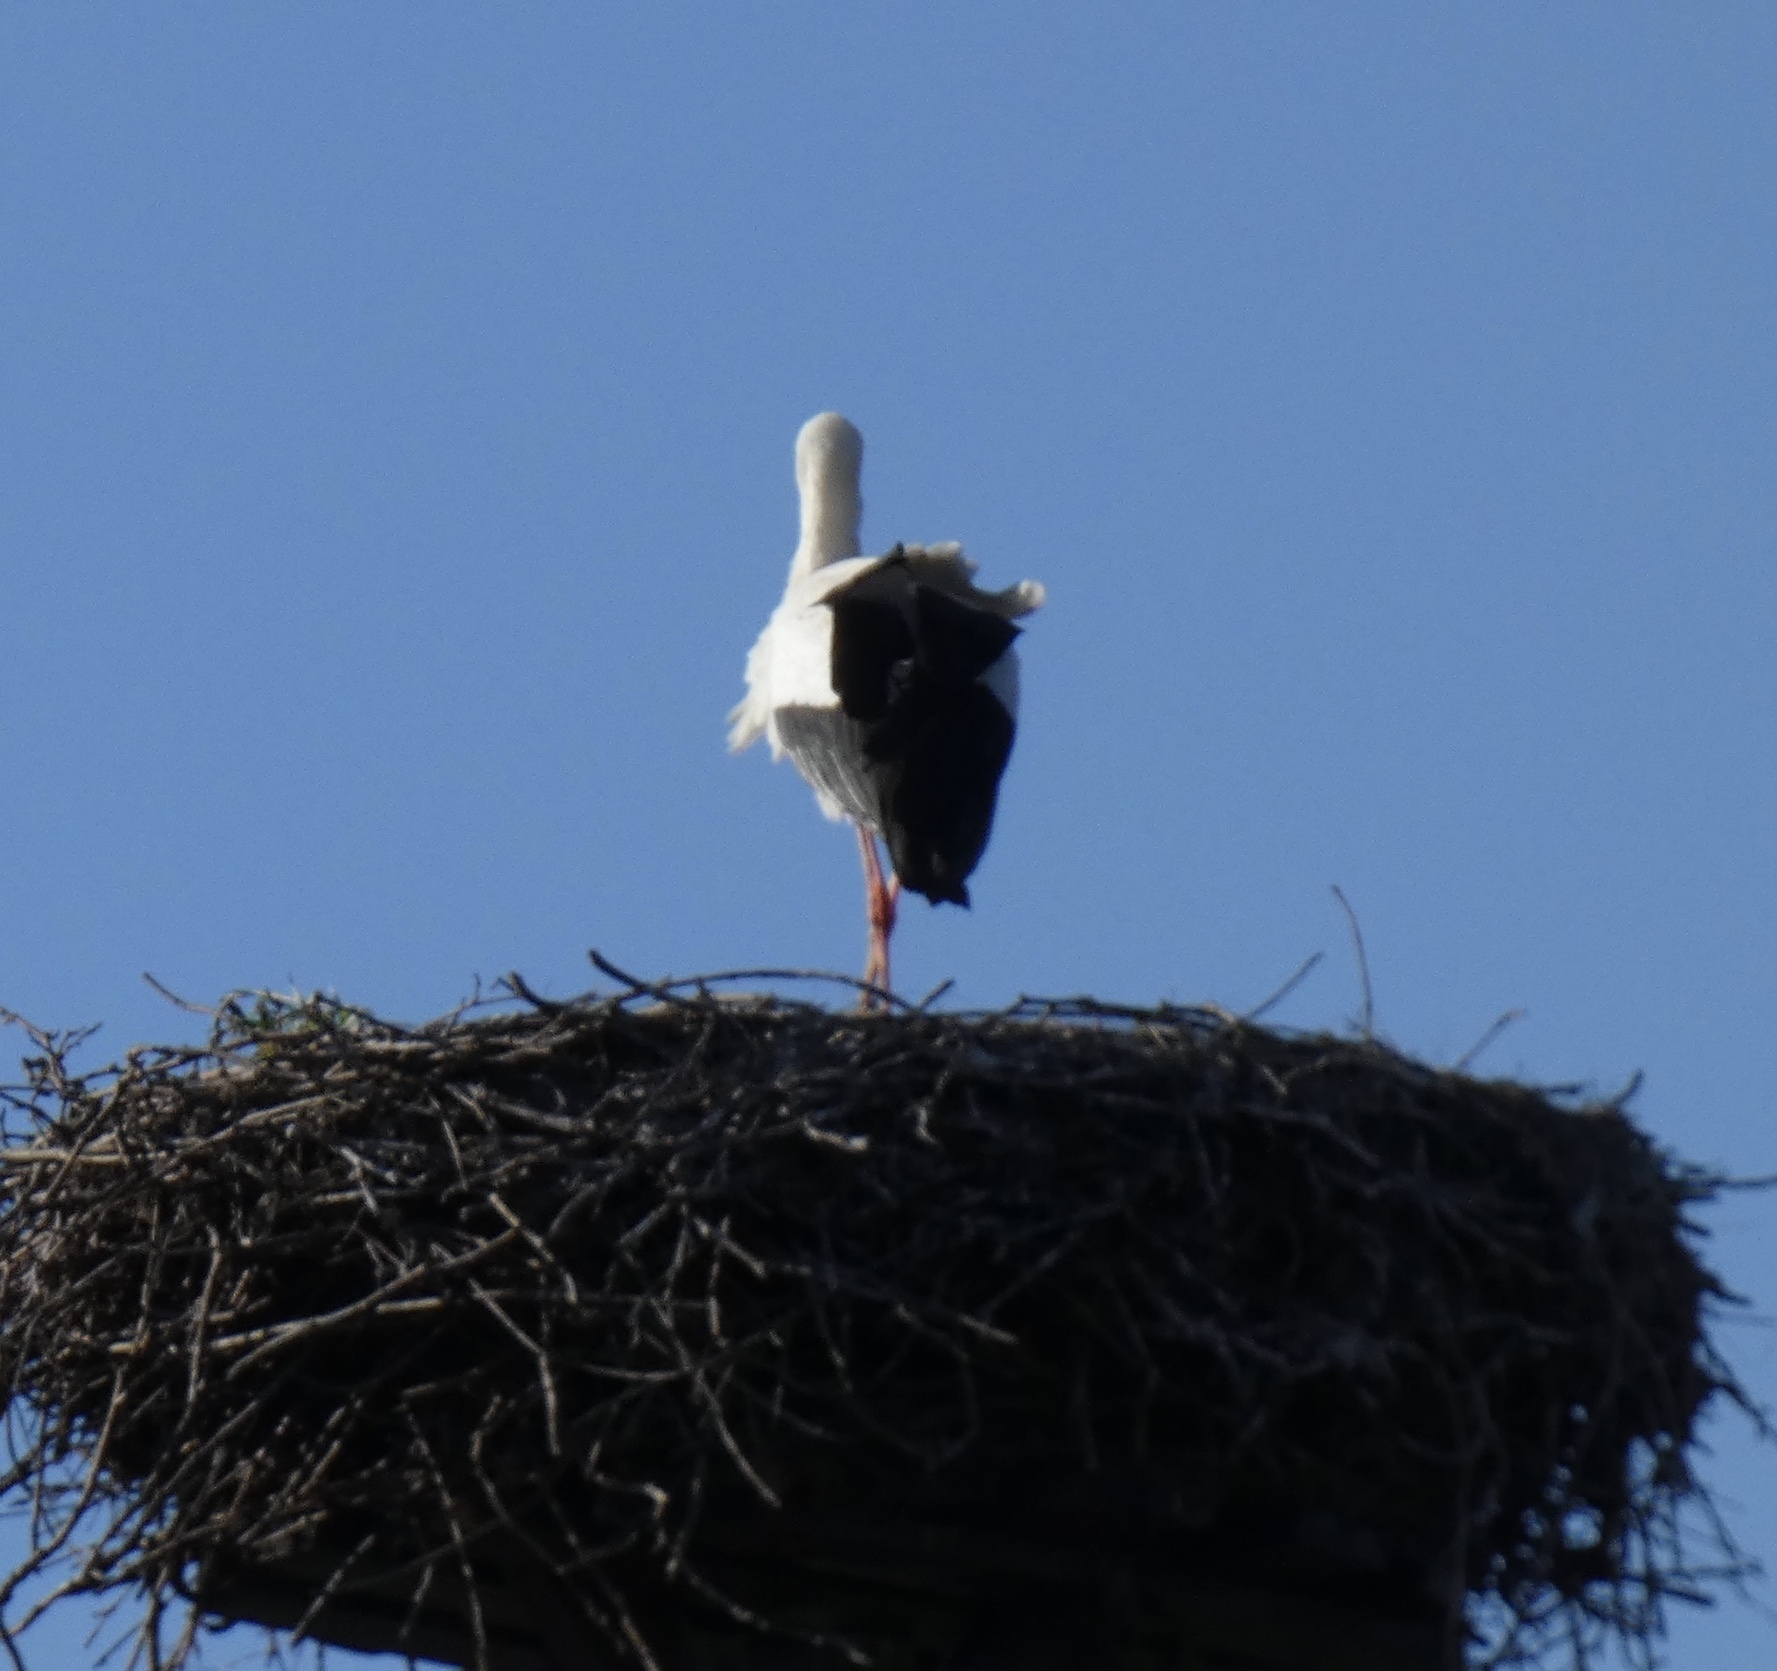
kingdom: Animalia
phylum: Chordata
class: Aves
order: Ciconiiformes
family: Ciconiidae
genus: Ciconia
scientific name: Ciconia ciconia
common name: White stork
